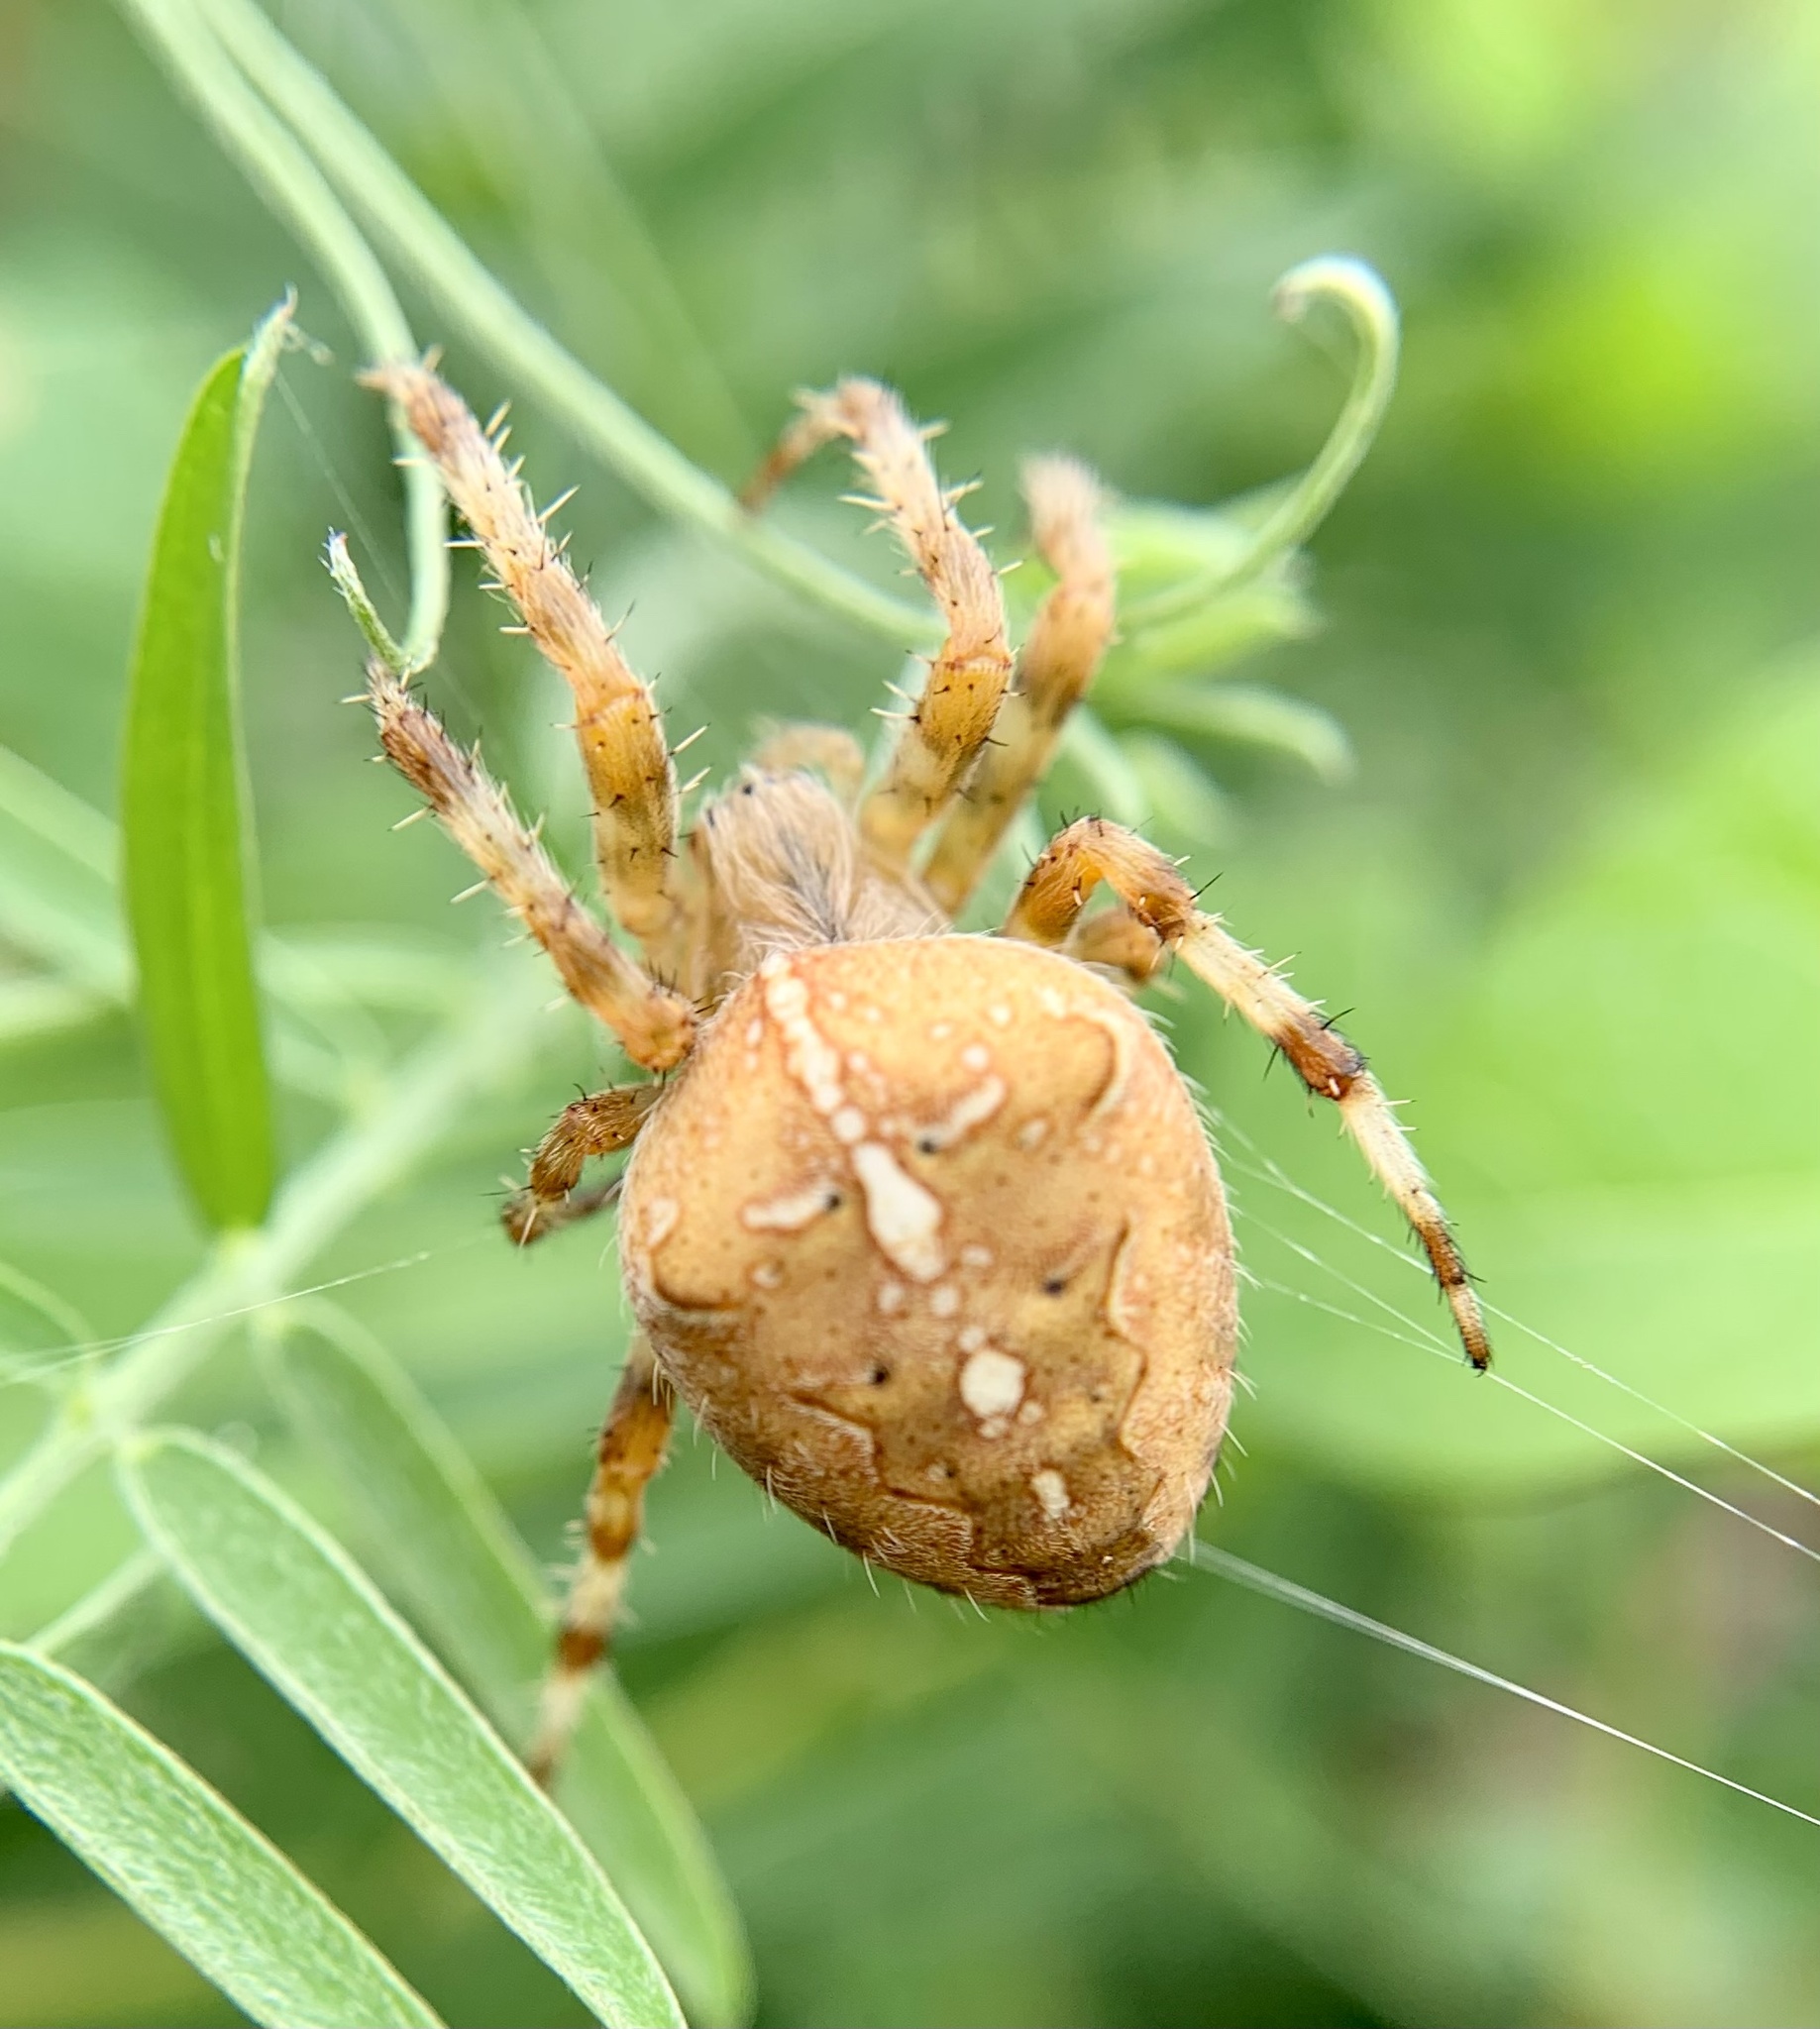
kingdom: Animalia
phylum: Arthropoda
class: Arachnida
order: Araneae
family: Araneidae
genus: Araneus
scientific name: Araneus diadematus
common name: Cross orbweaver
